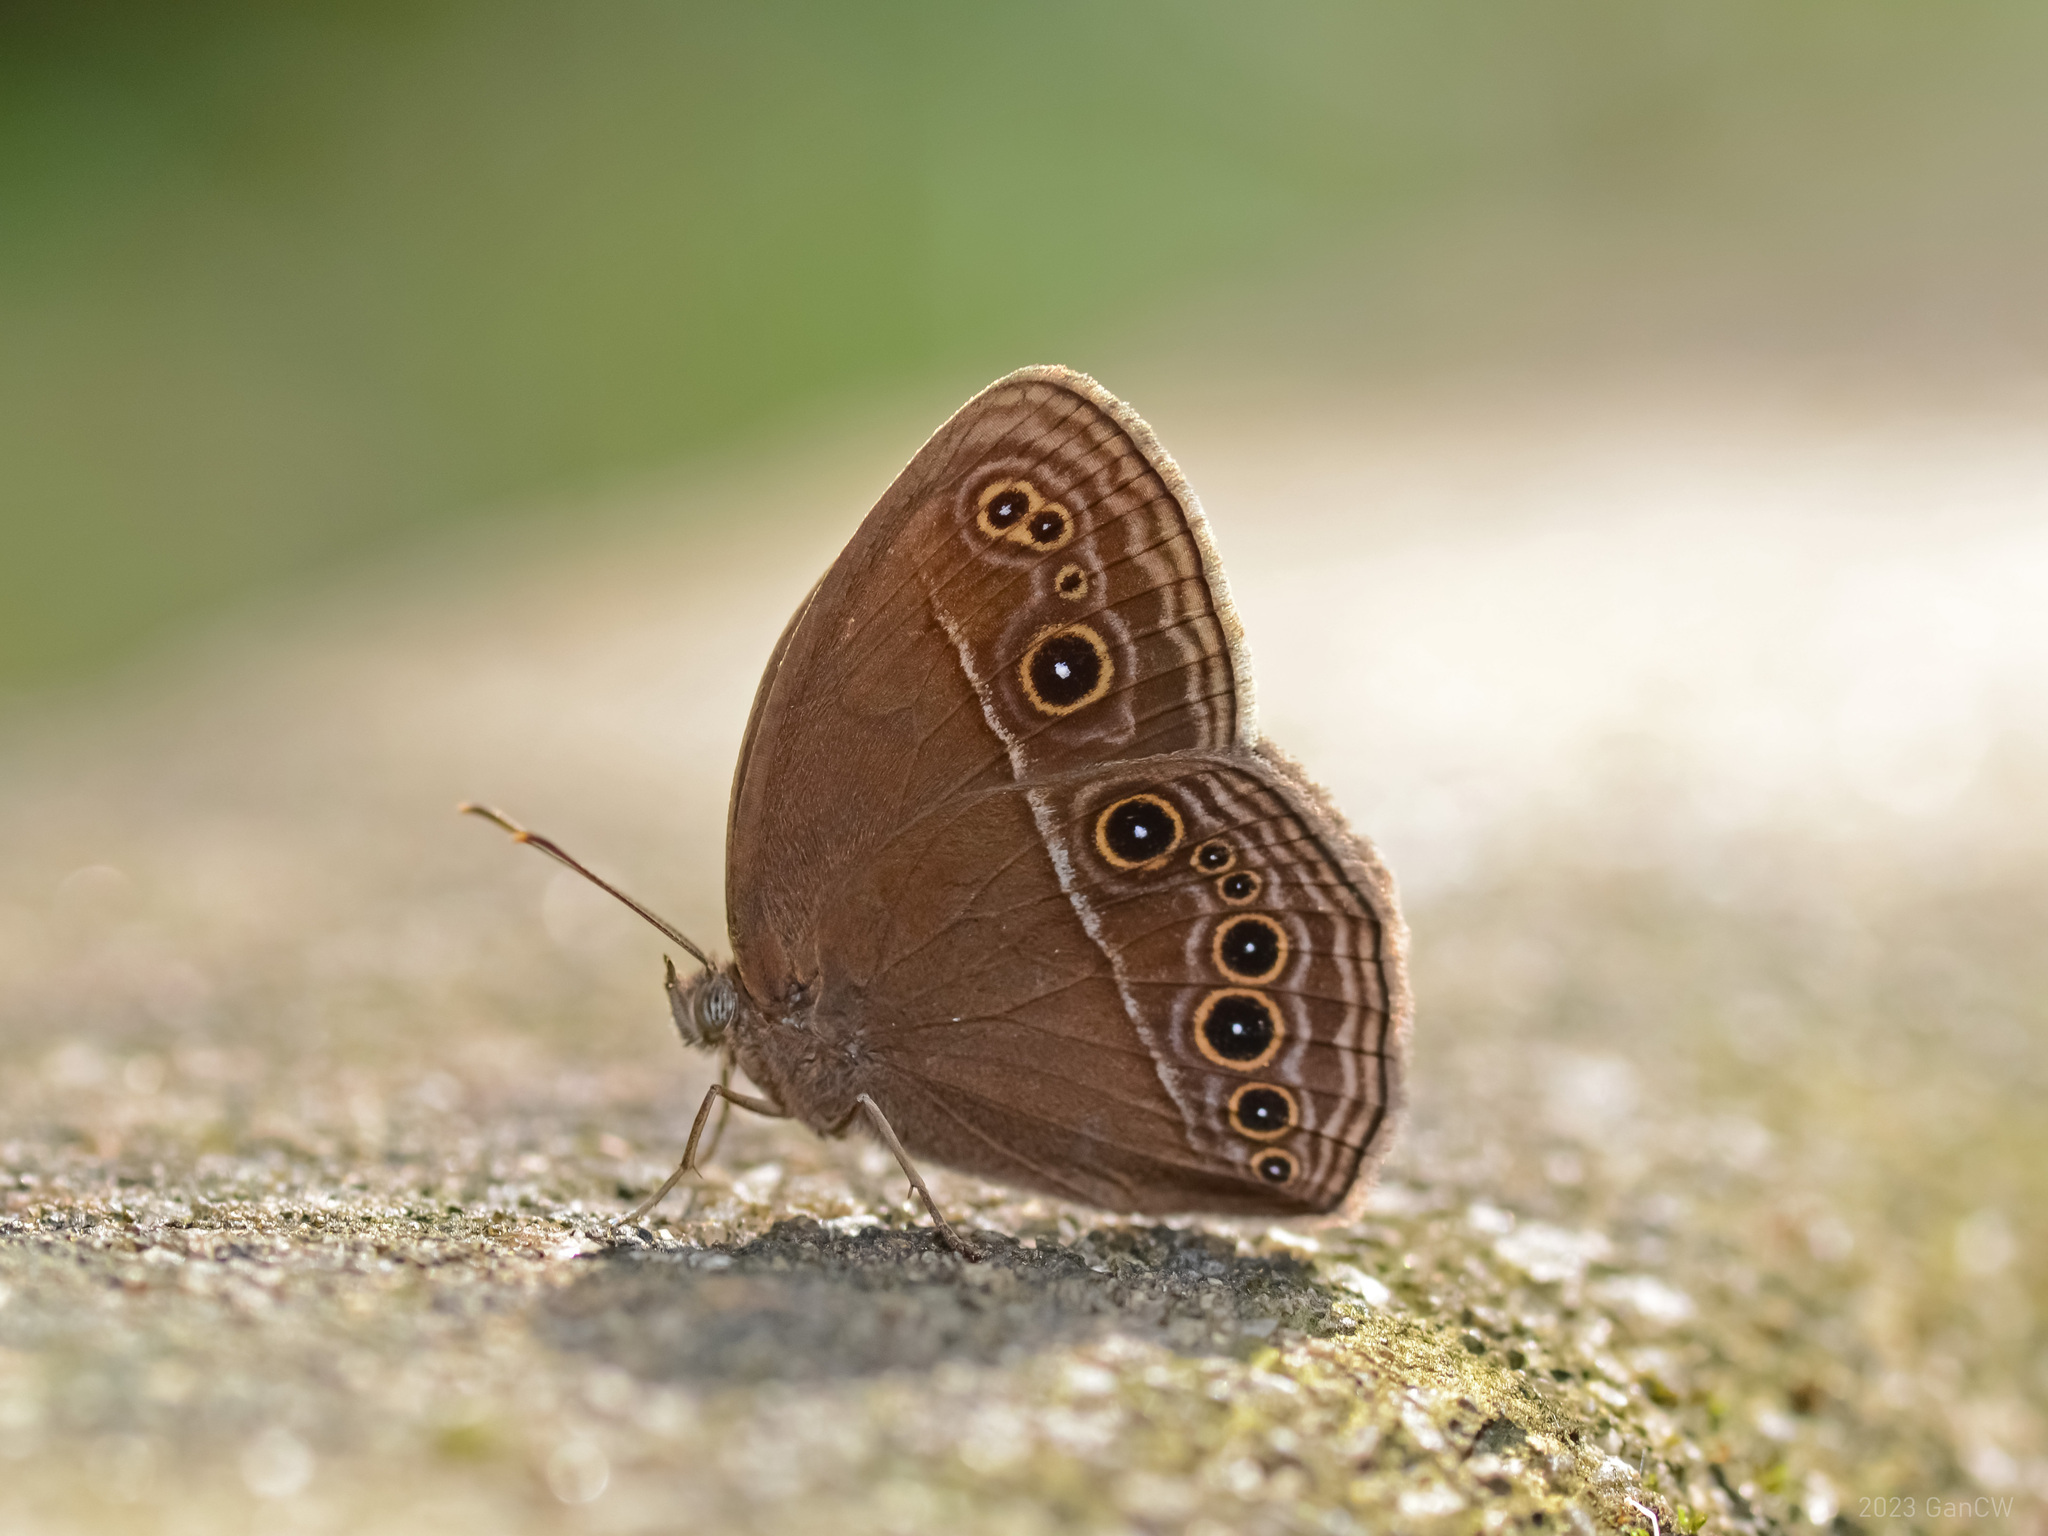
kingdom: Animalia
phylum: Arthropoda
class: Insecta
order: Lepidoptera
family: Nymphalidae
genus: Mycalesis
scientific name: Mycalesis perseus
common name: Dingy bushbrown
